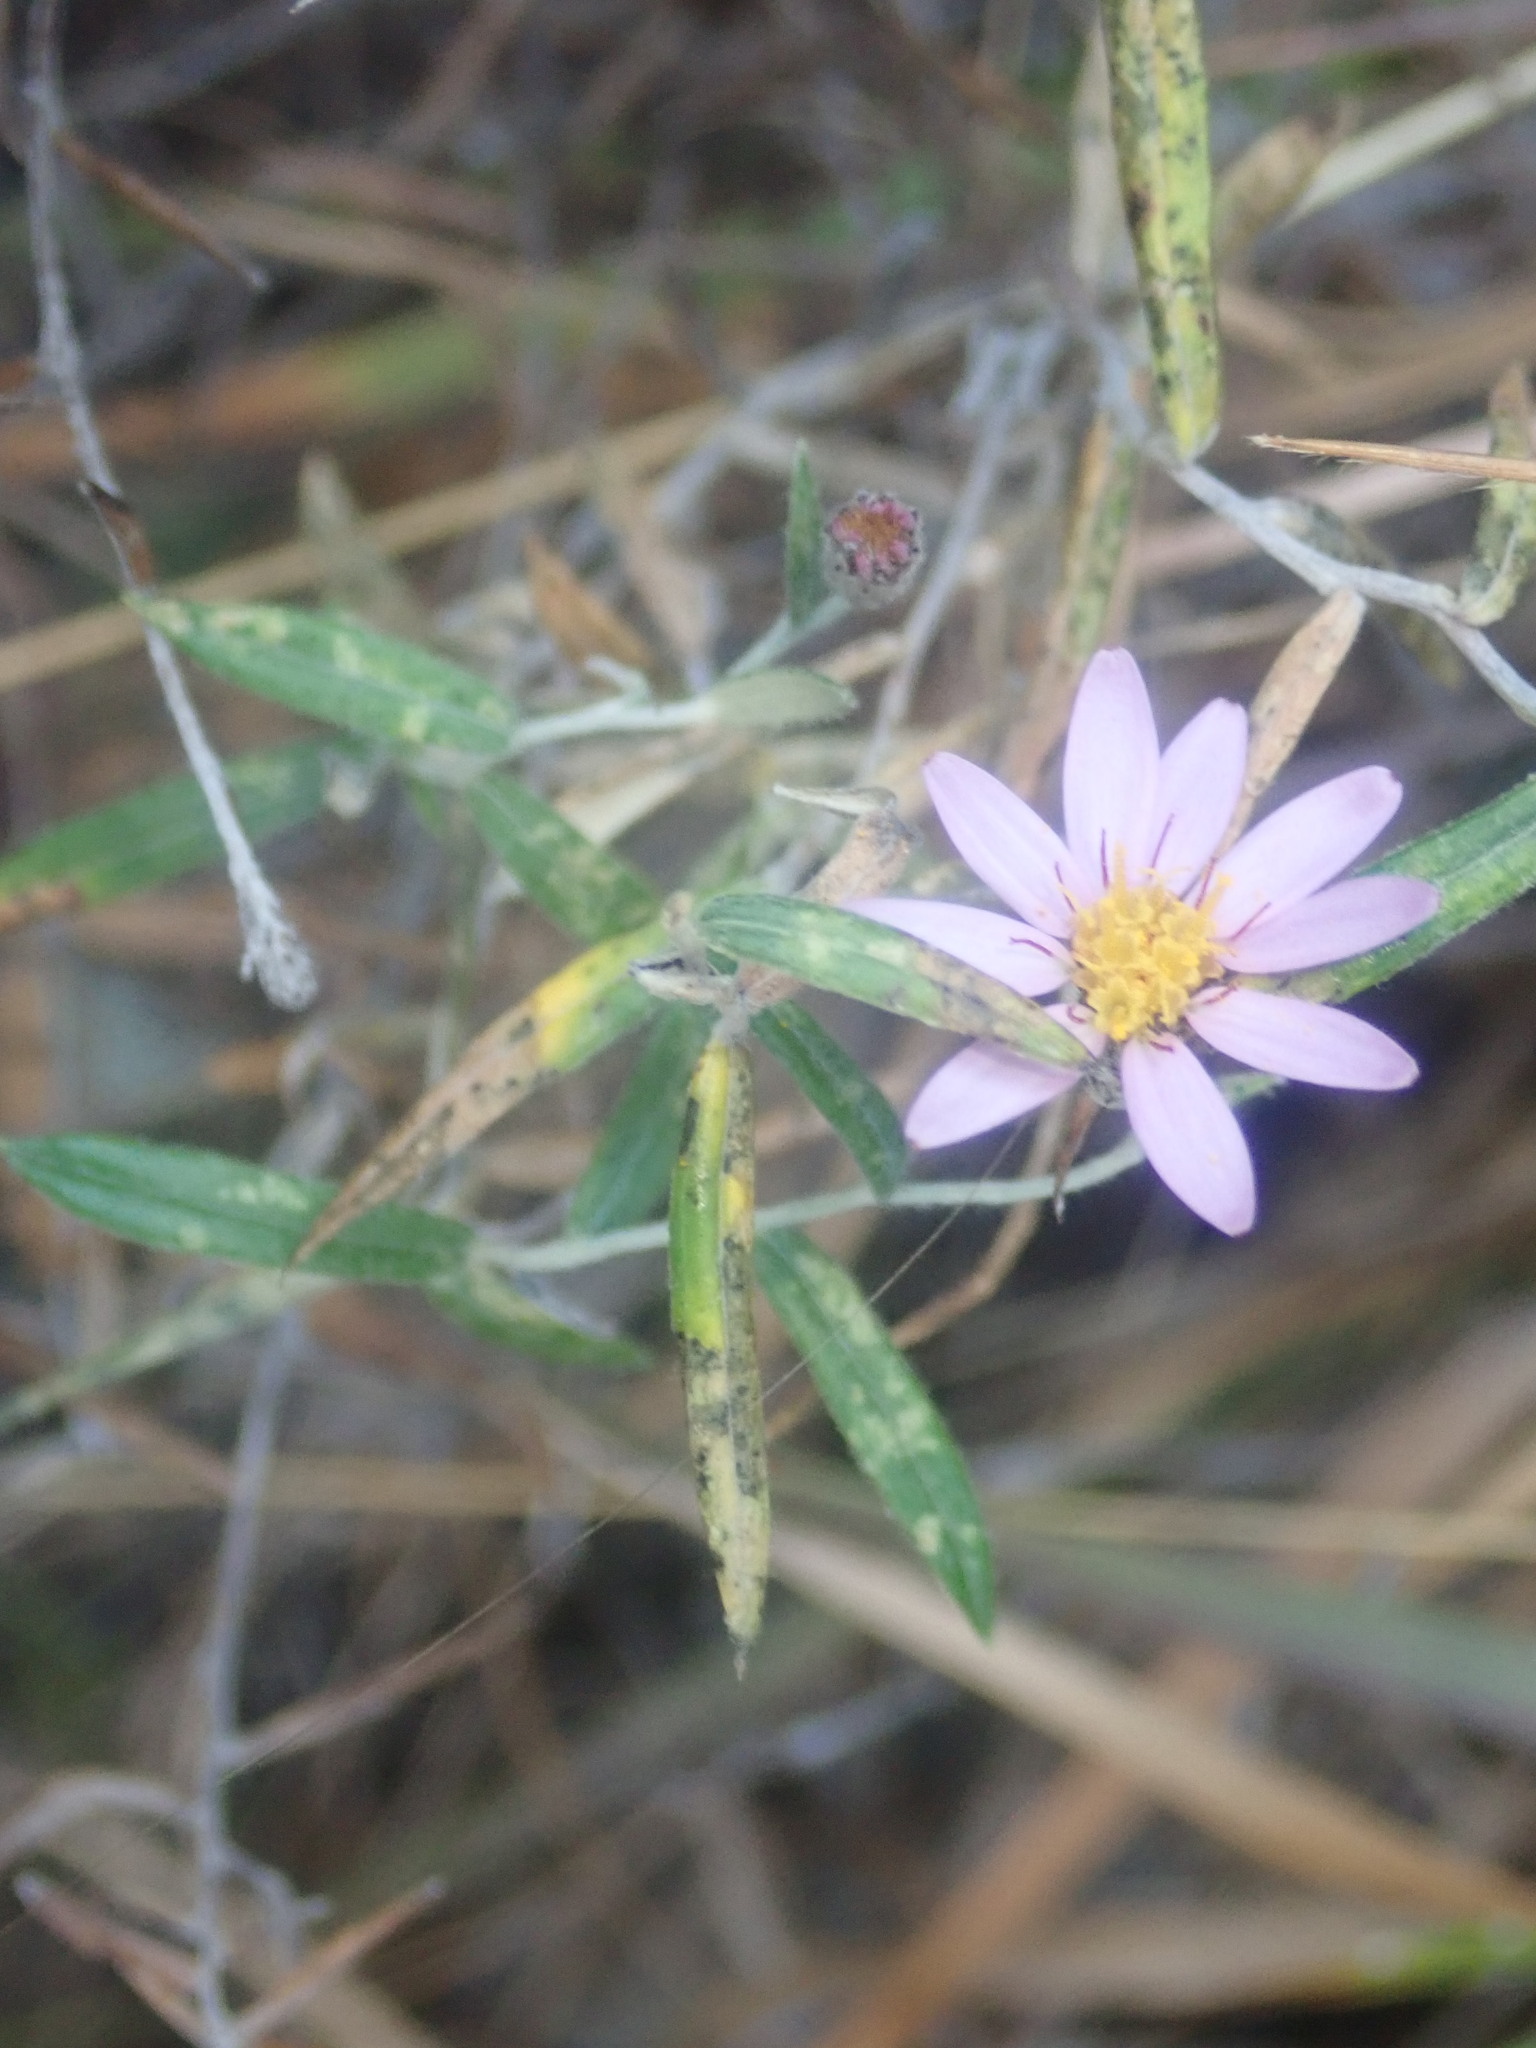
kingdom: Plantae
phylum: Tracheophyta
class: Magnoliopsida
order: Asterales
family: Asteraceae
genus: Athrixia
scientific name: Athrixia phylicoides
